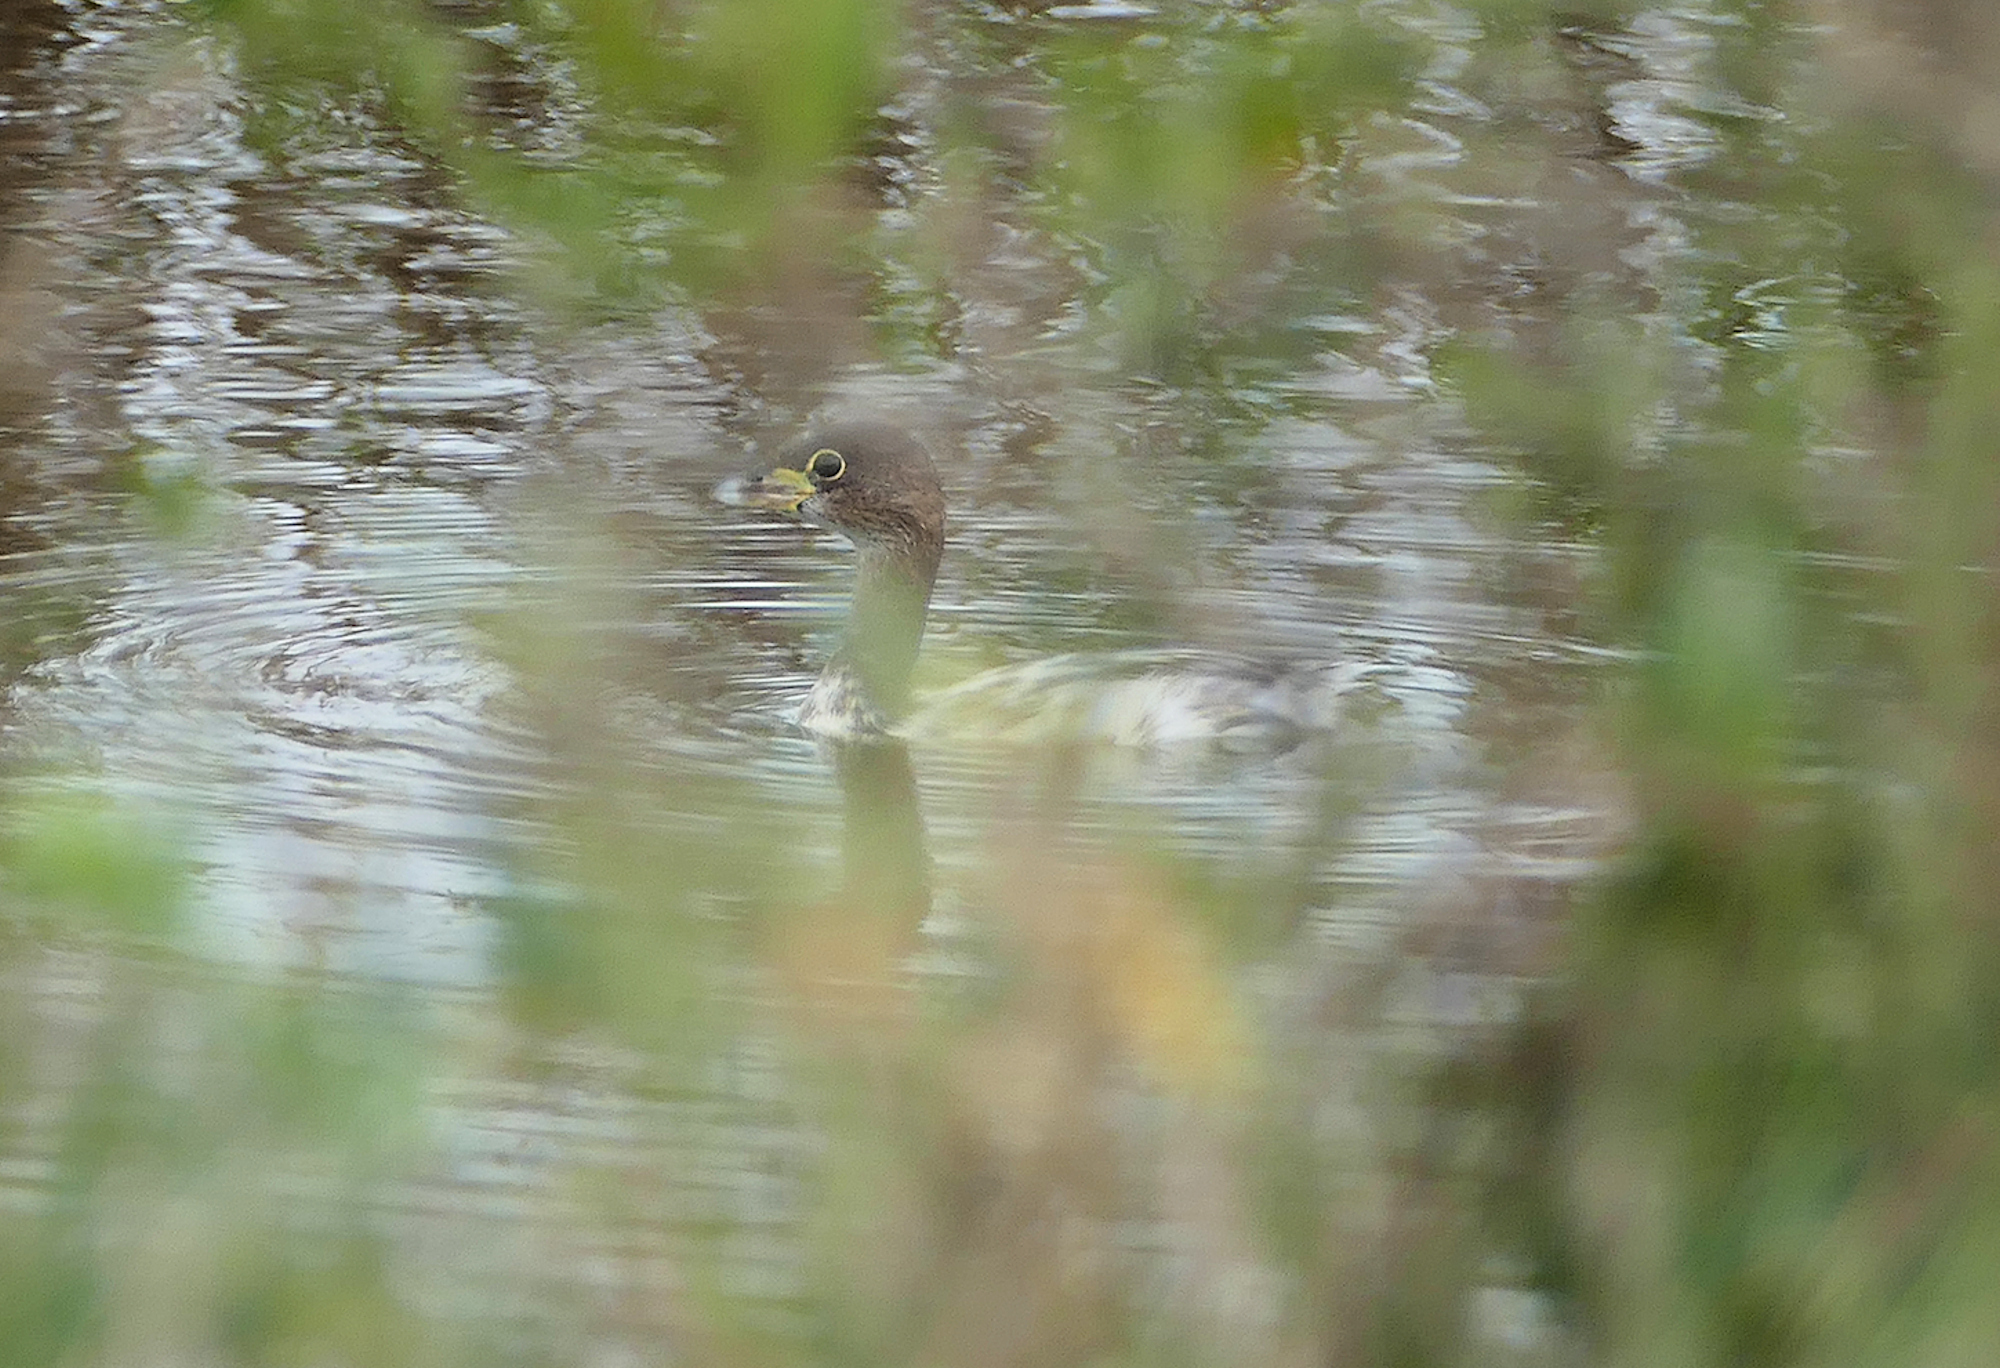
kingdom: Animalia
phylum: Chordata
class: Aves
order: Podicipediformes
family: Podicipedidae
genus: Podilymbus
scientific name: Podilymbus podiceps
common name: Pied-billed grebe
